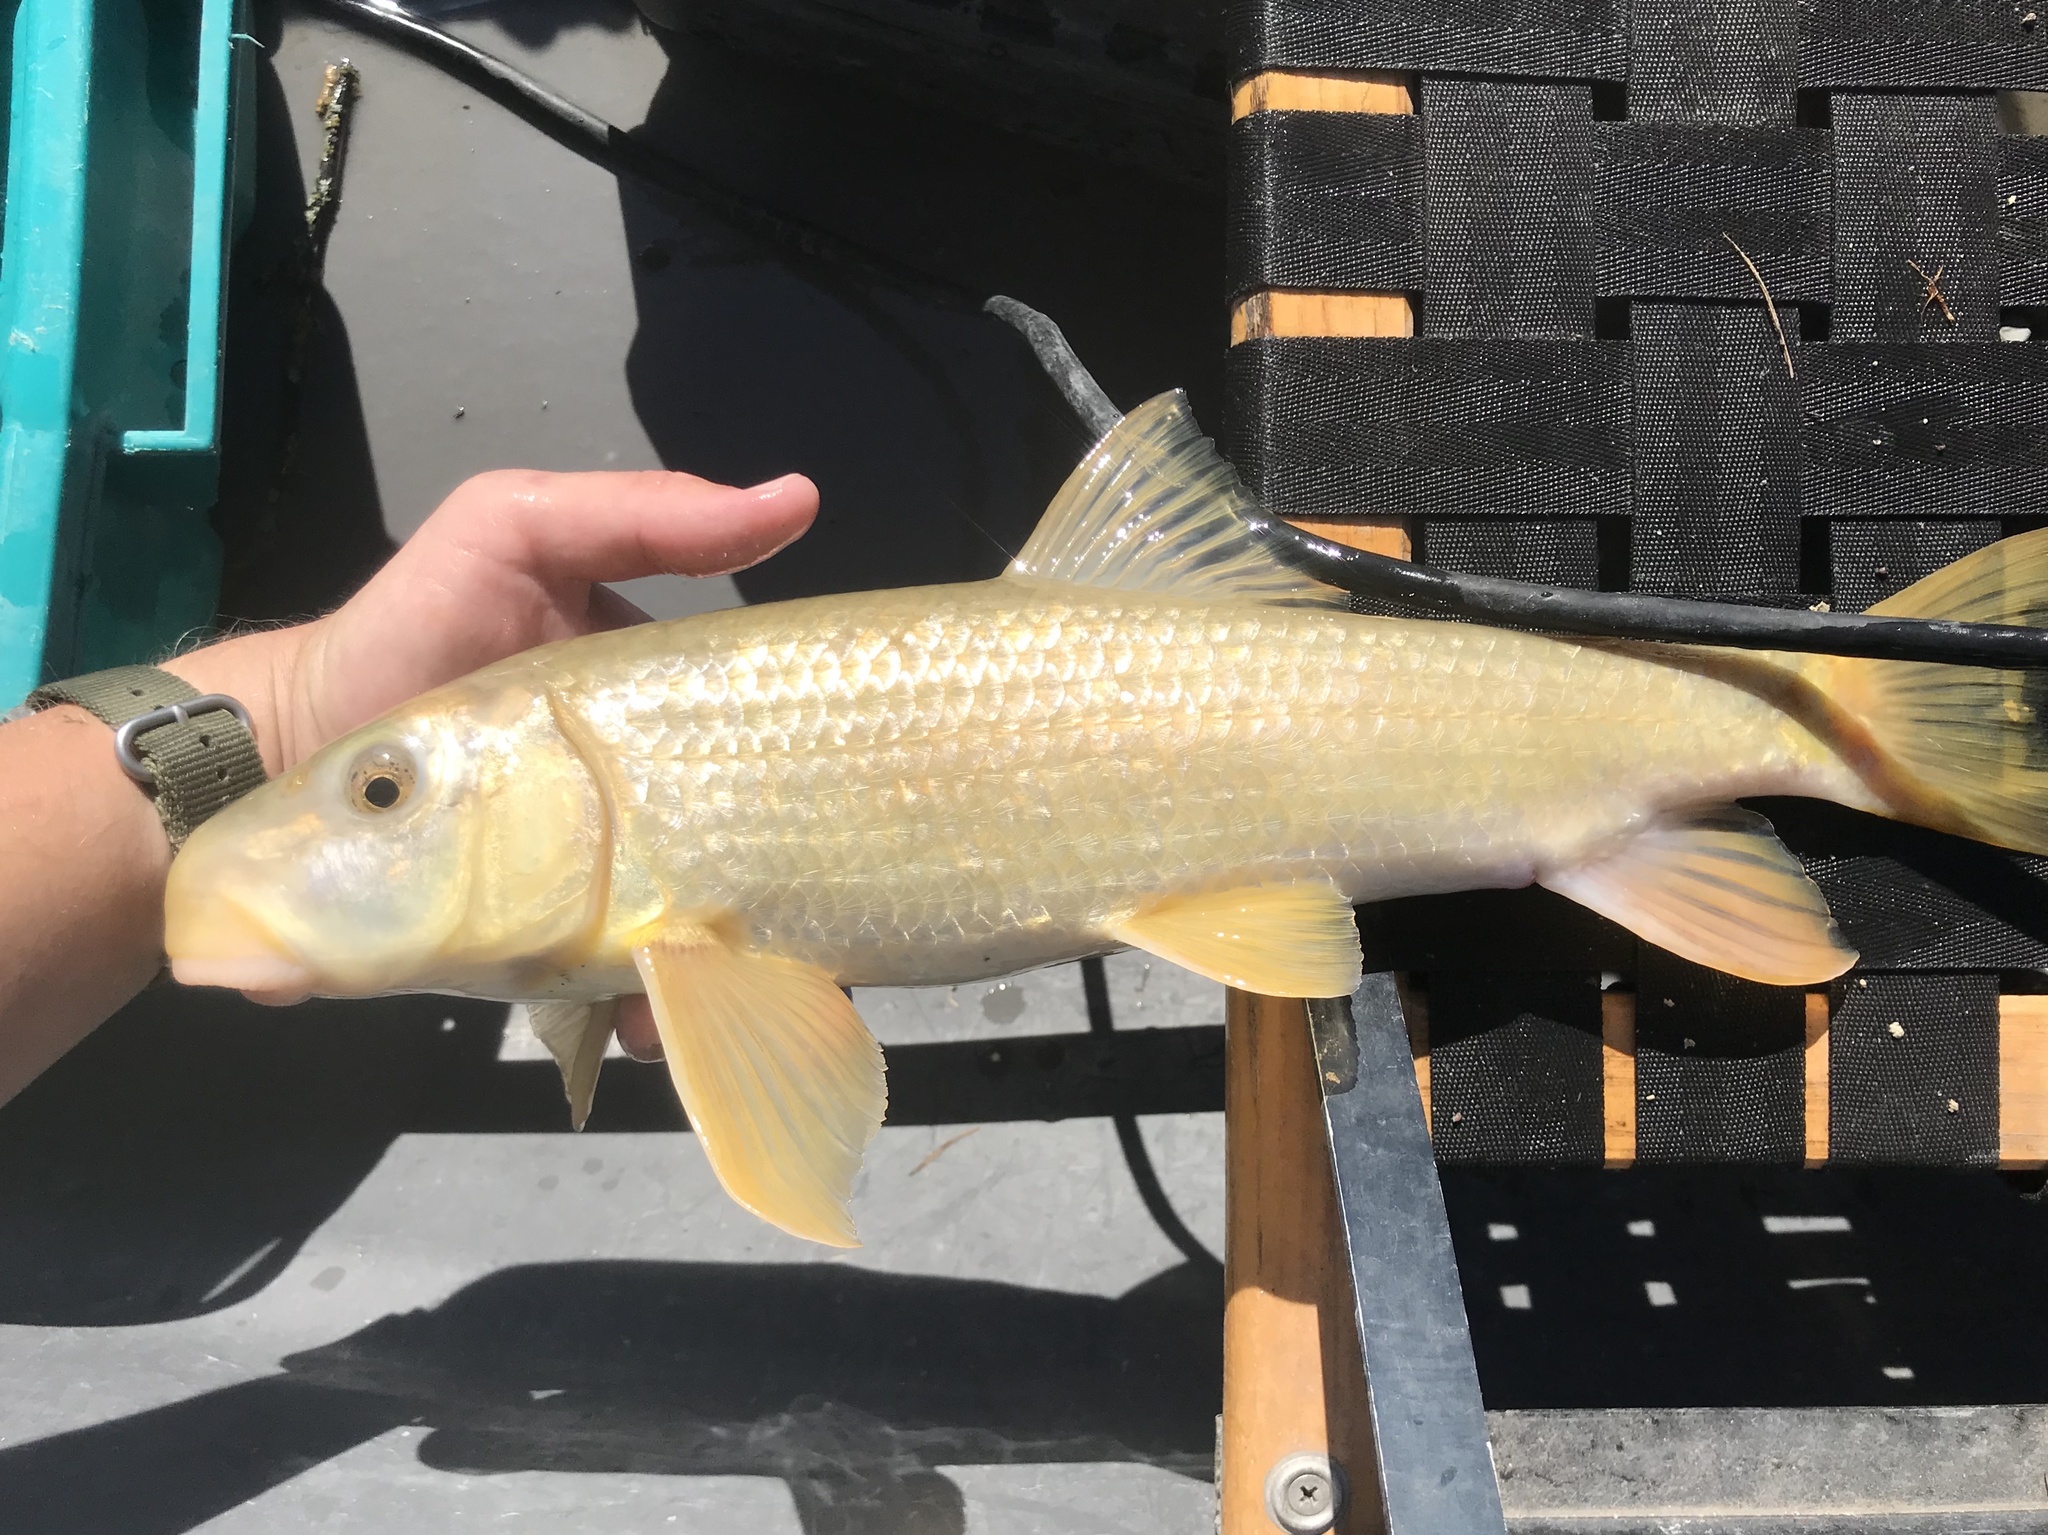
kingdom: Animalia
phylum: Chordata
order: Cypriniformes
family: Catostomidae
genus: Moxostoma
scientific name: Moxostoma congestum
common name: Gray redhorse
